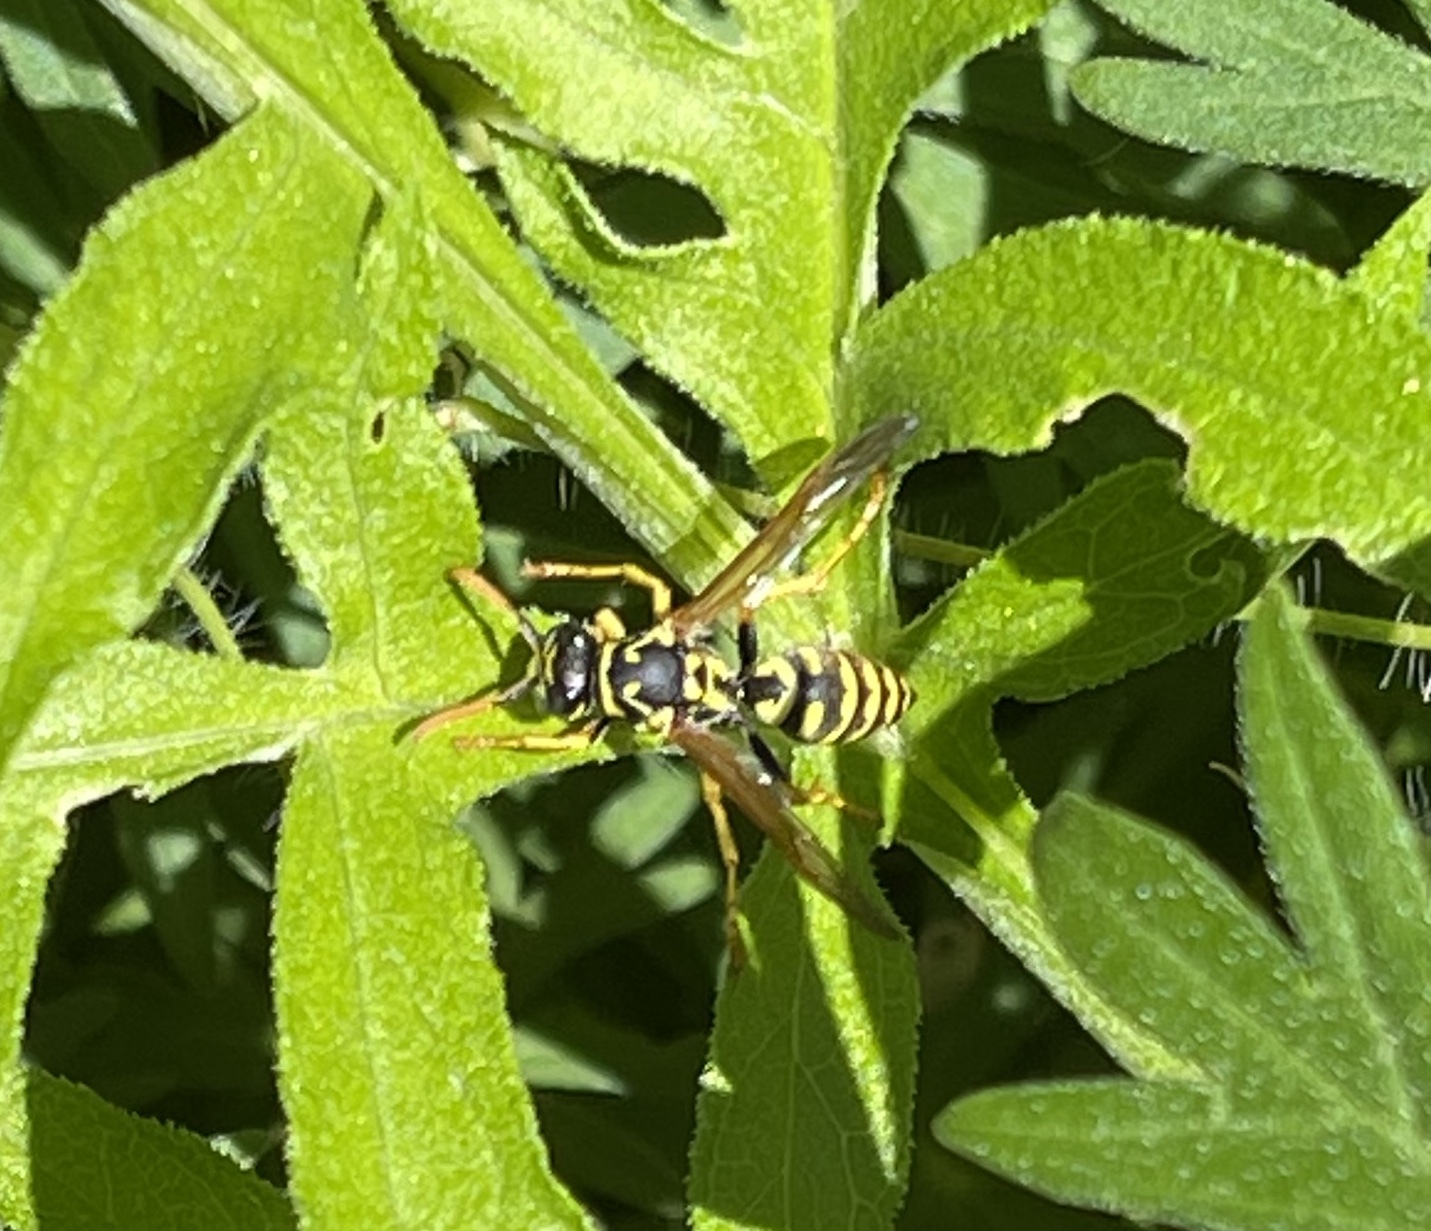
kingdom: Animalia
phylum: Arthropoda
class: Insecta
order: Hymenoptera
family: Eumenidae
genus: Polistes
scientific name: Polistes dominula
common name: Paper wasp
